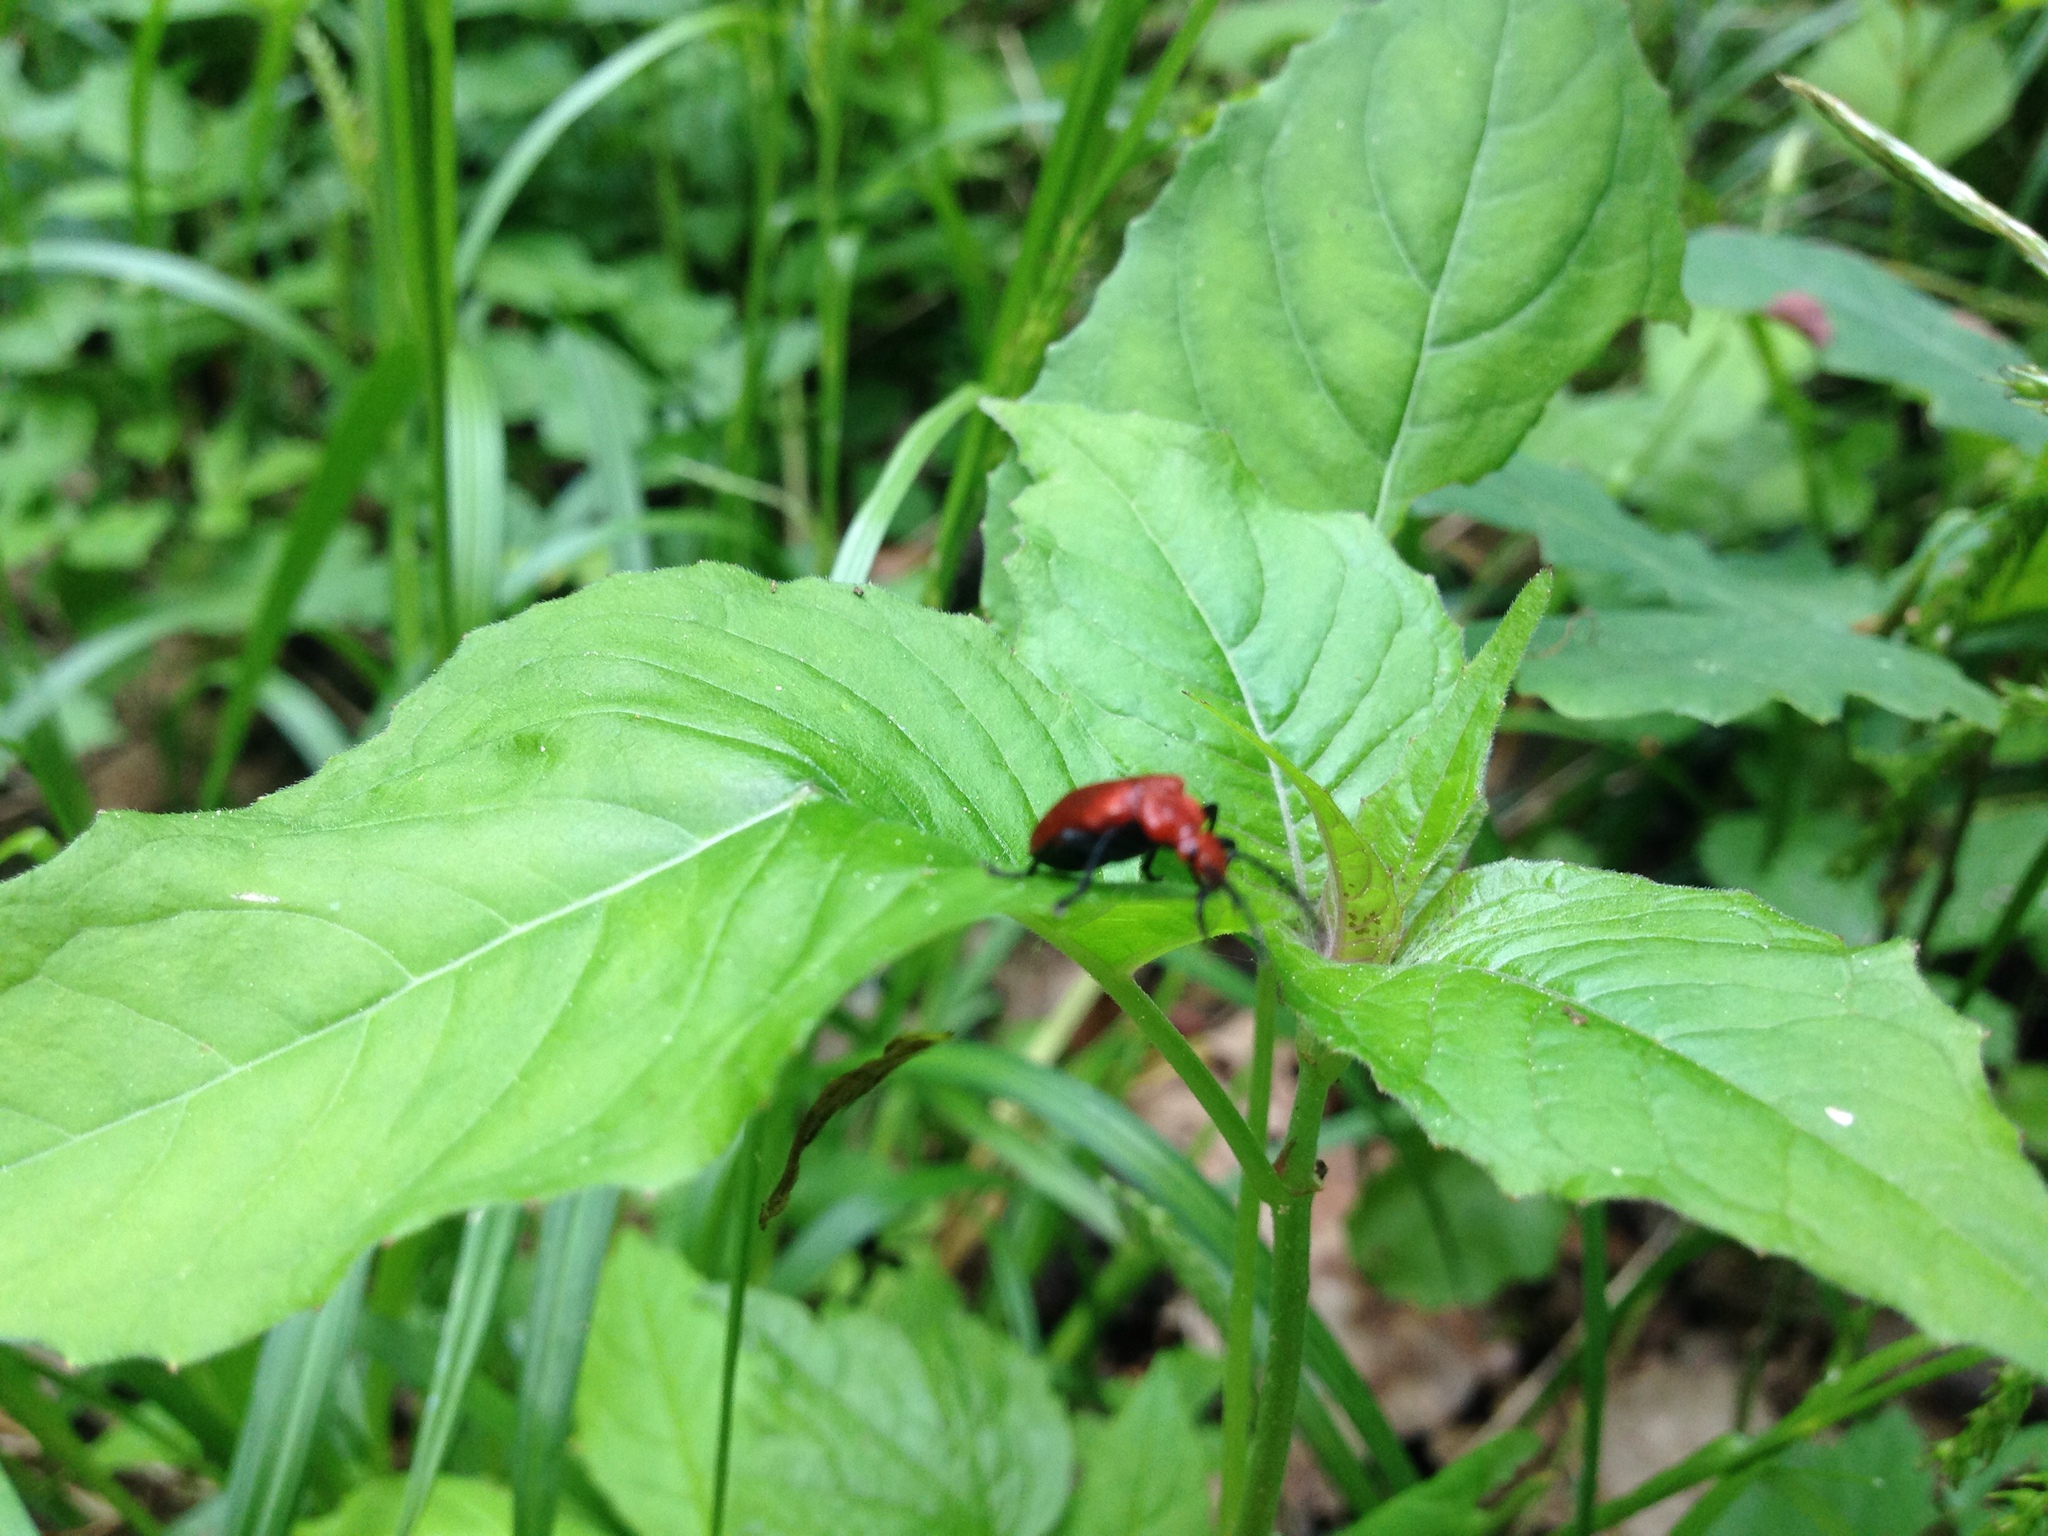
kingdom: Animalia
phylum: Arthropoda
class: Insecta
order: Coleoptera
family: Pyrochroidae
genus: Pyrochroa
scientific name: Pyrochroa serraticornis
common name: Red-headed cardinal beetle
